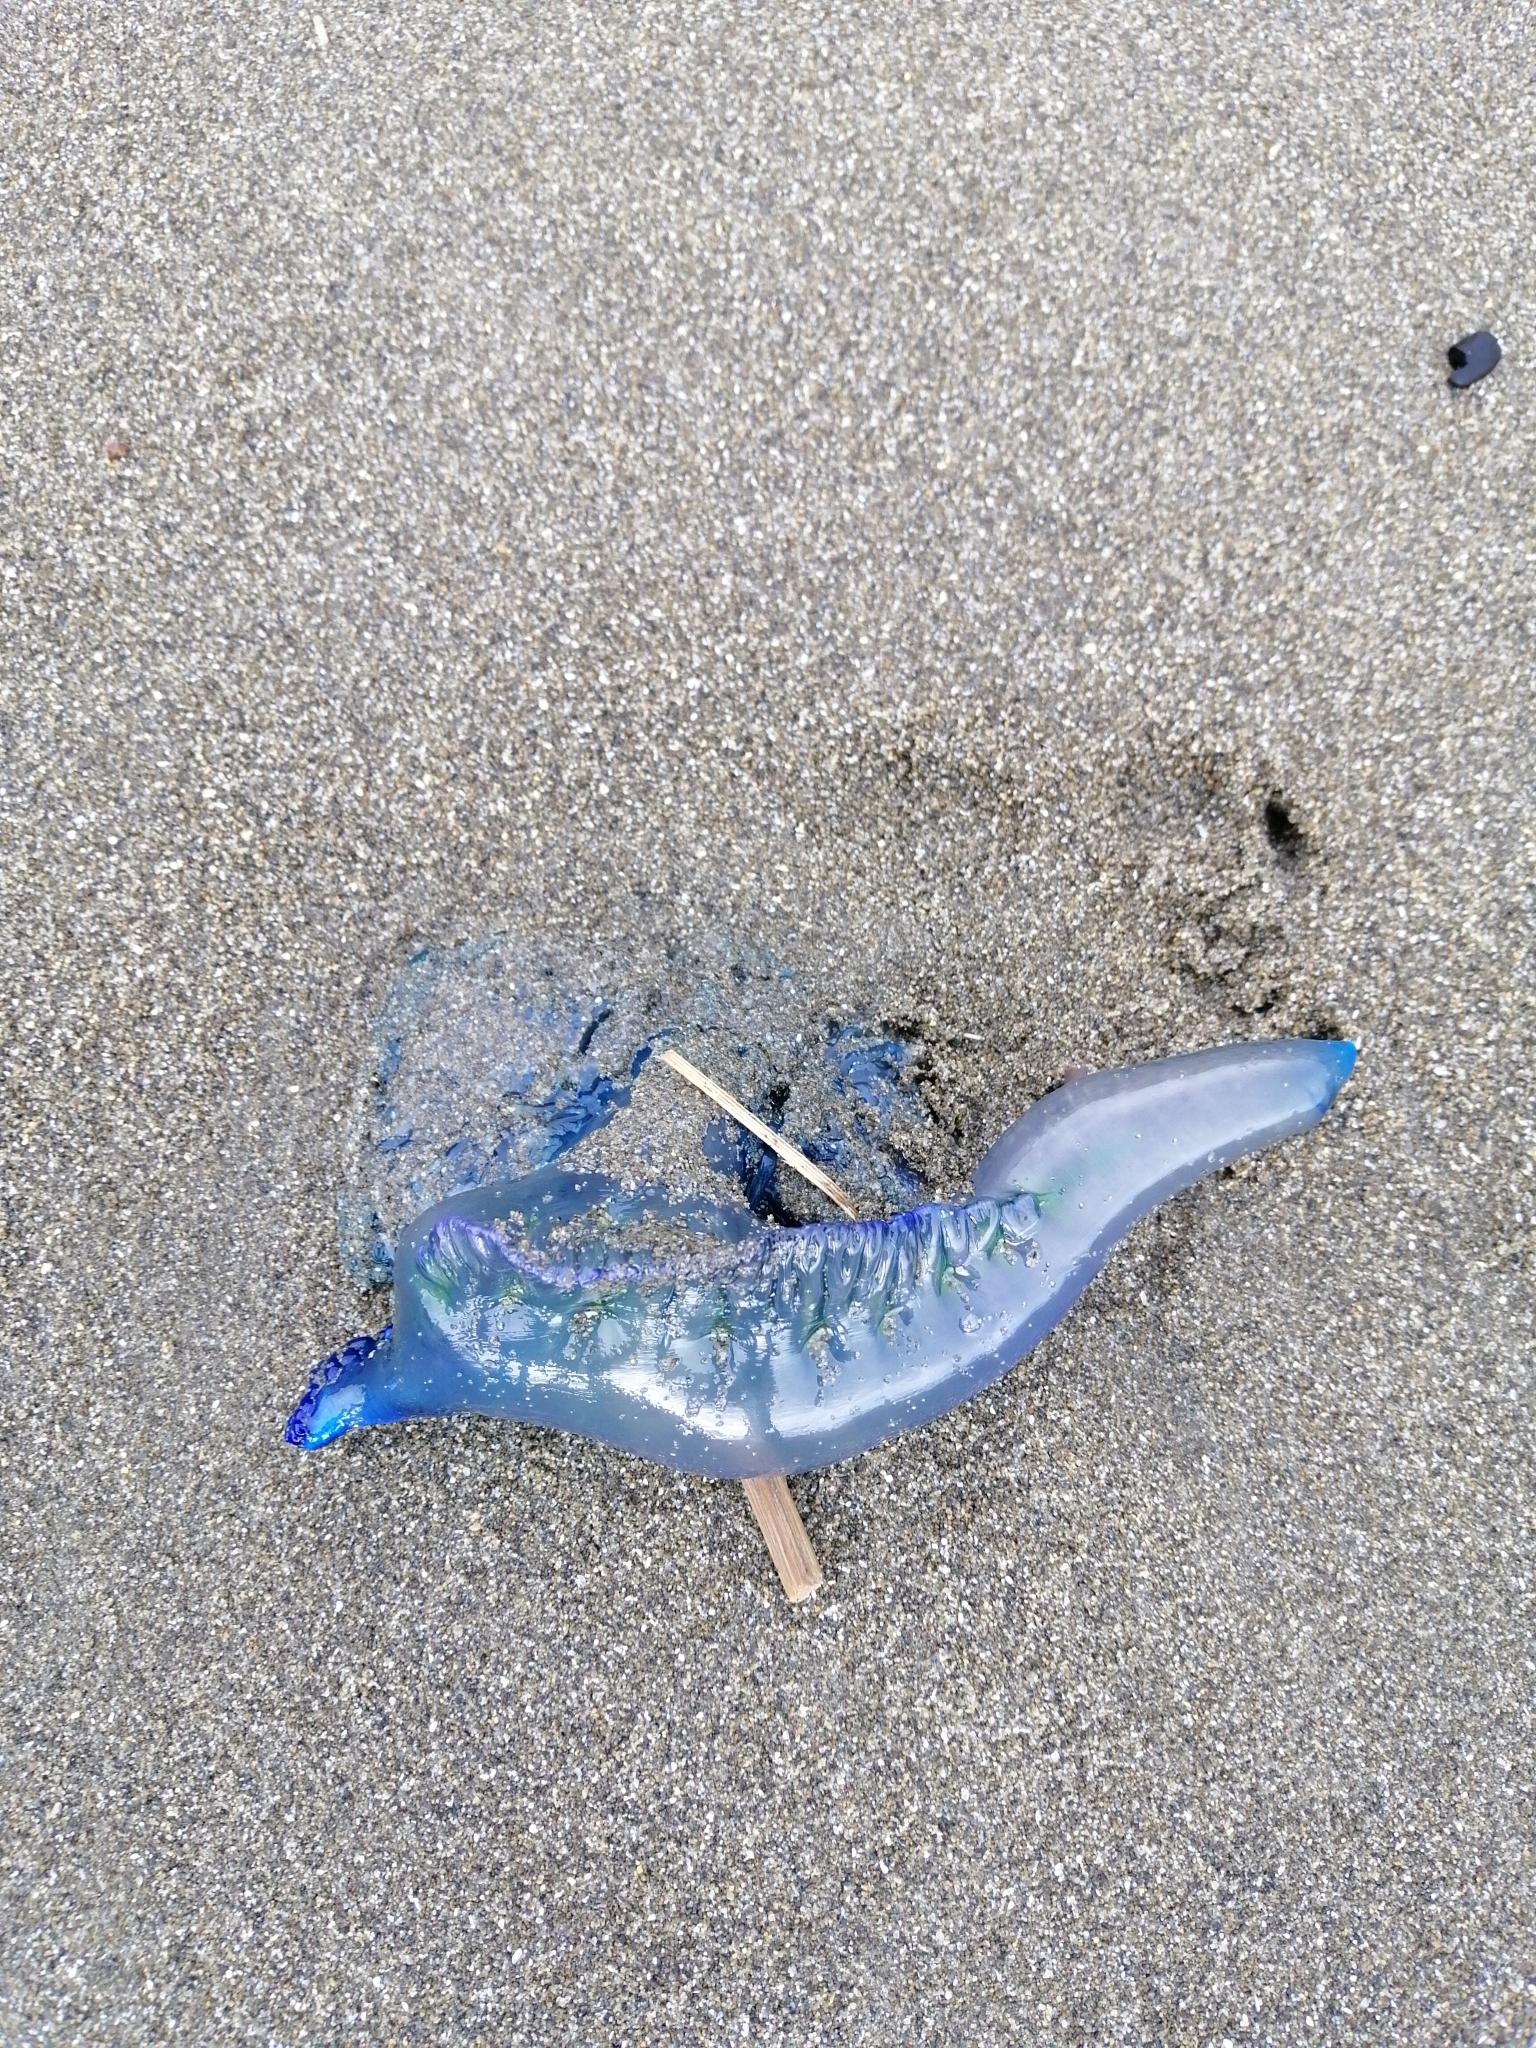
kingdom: Animalia
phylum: Cnidaria
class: Hydrozoa
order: Siphonophorae
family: Physaliidae
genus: Physalia
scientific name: Physalia physalis
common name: Portuguese man-of-war
